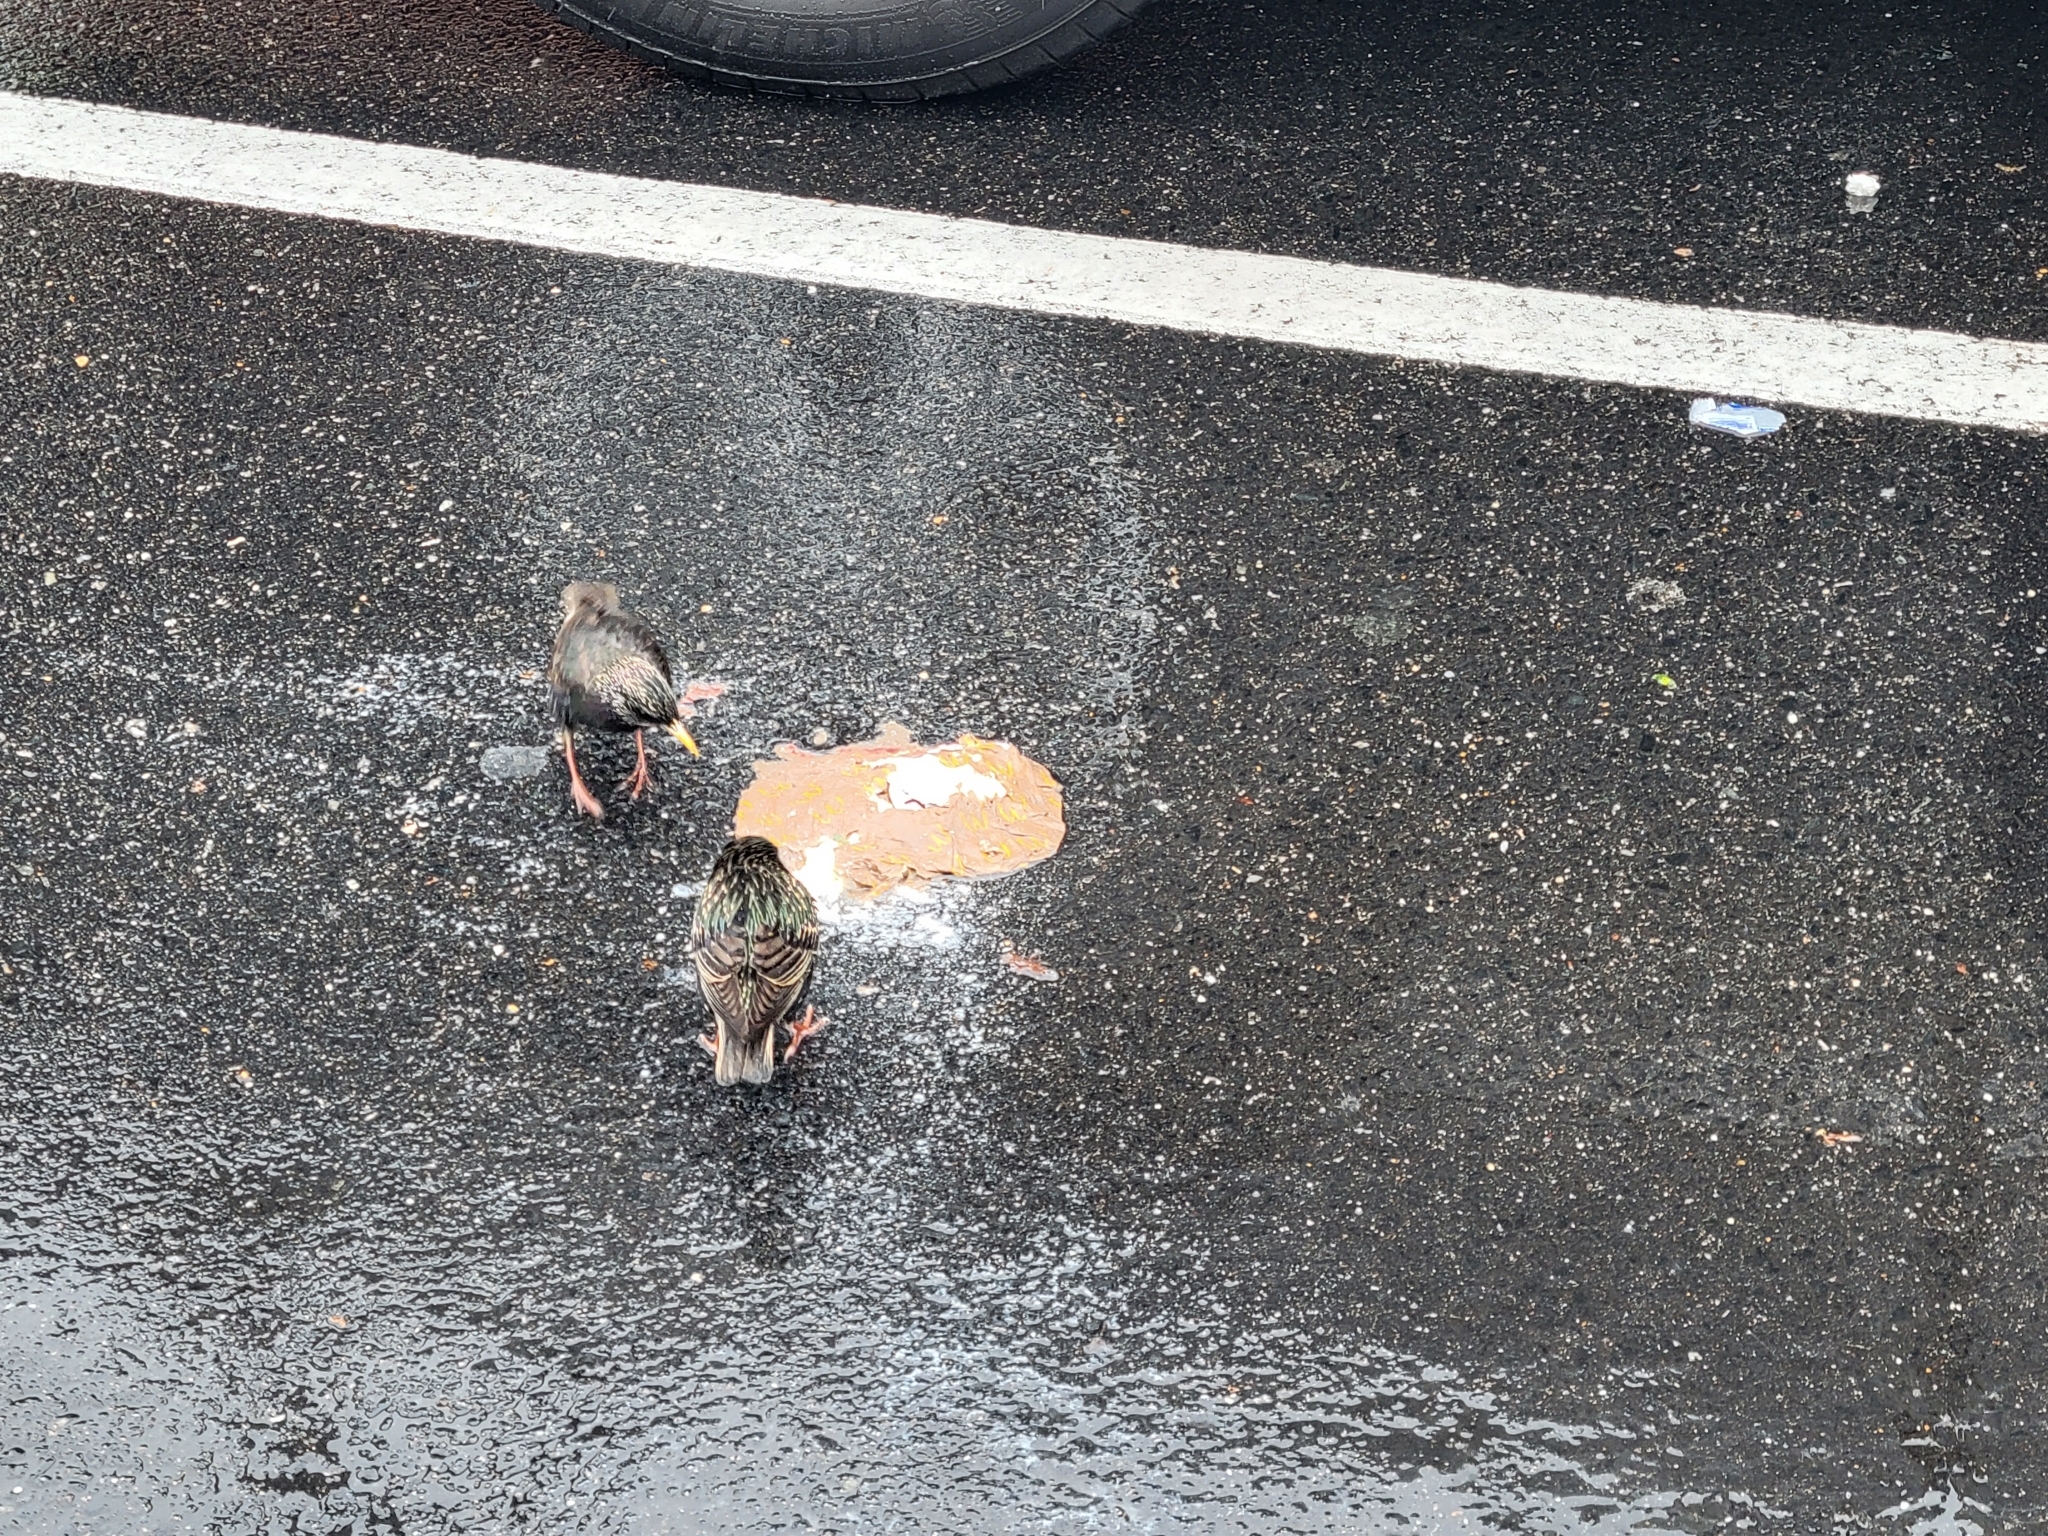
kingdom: Animalia
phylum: Chordata
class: Aves
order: Passeriformes
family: Sturnidae
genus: Sturnus
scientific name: Sturnus vulgaris
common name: Common starling
